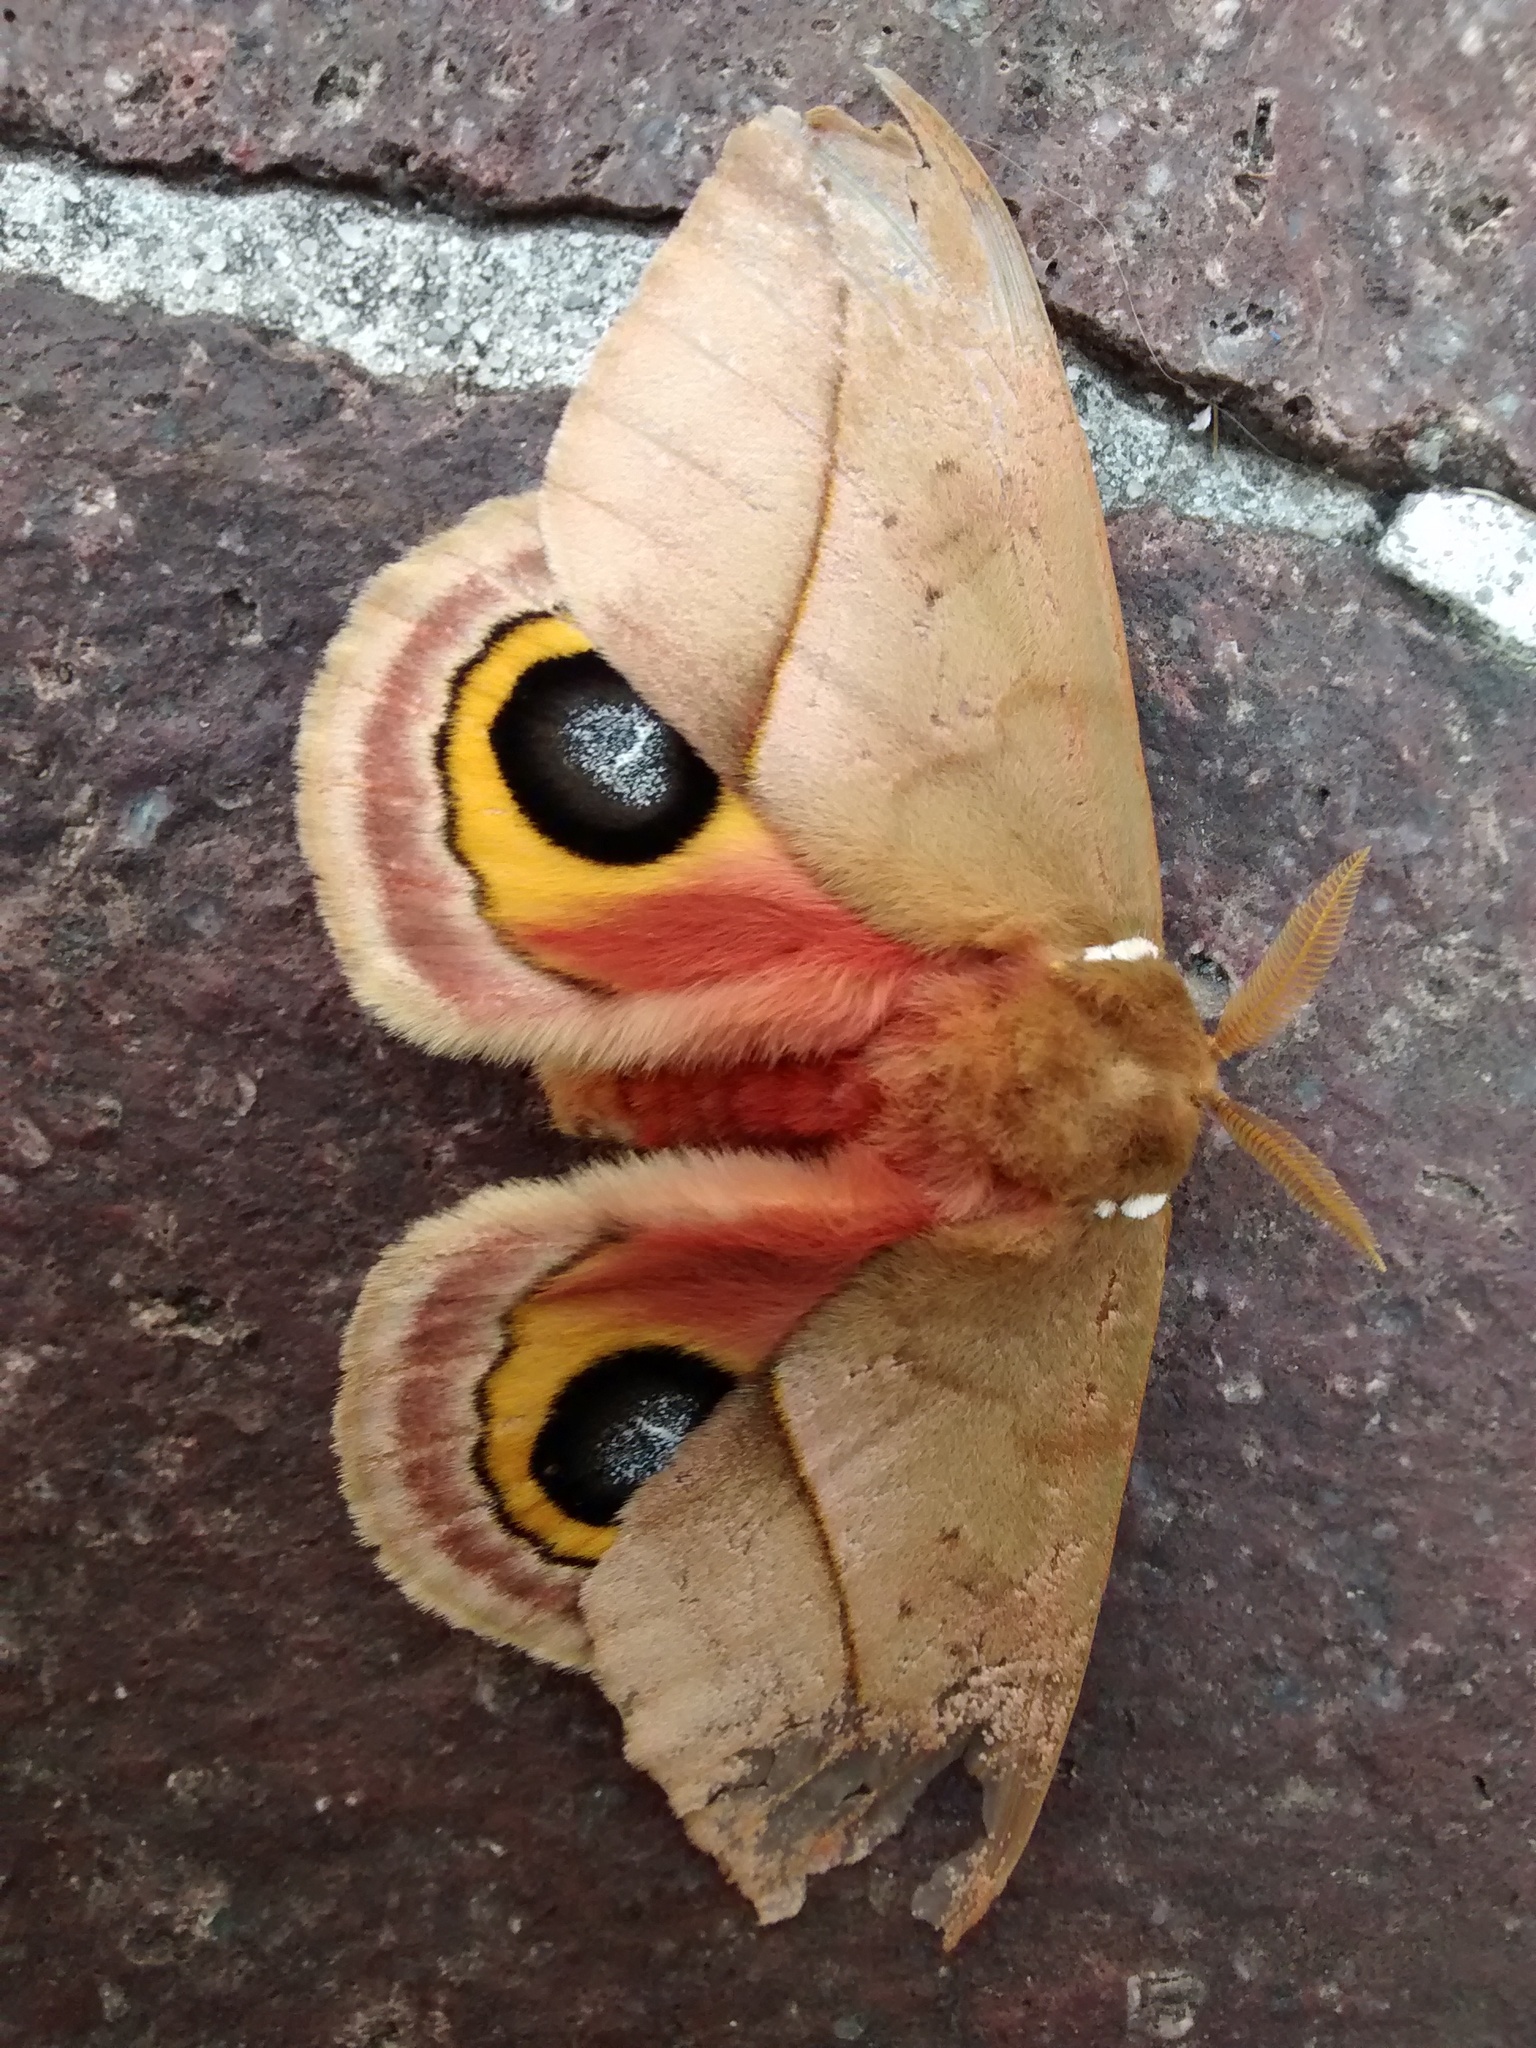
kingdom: Animalia
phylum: Arthropoda
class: Insecta
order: Lepidoptera
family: Saturniidae
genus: Automeris
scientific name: Automeris io
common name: Io moth
